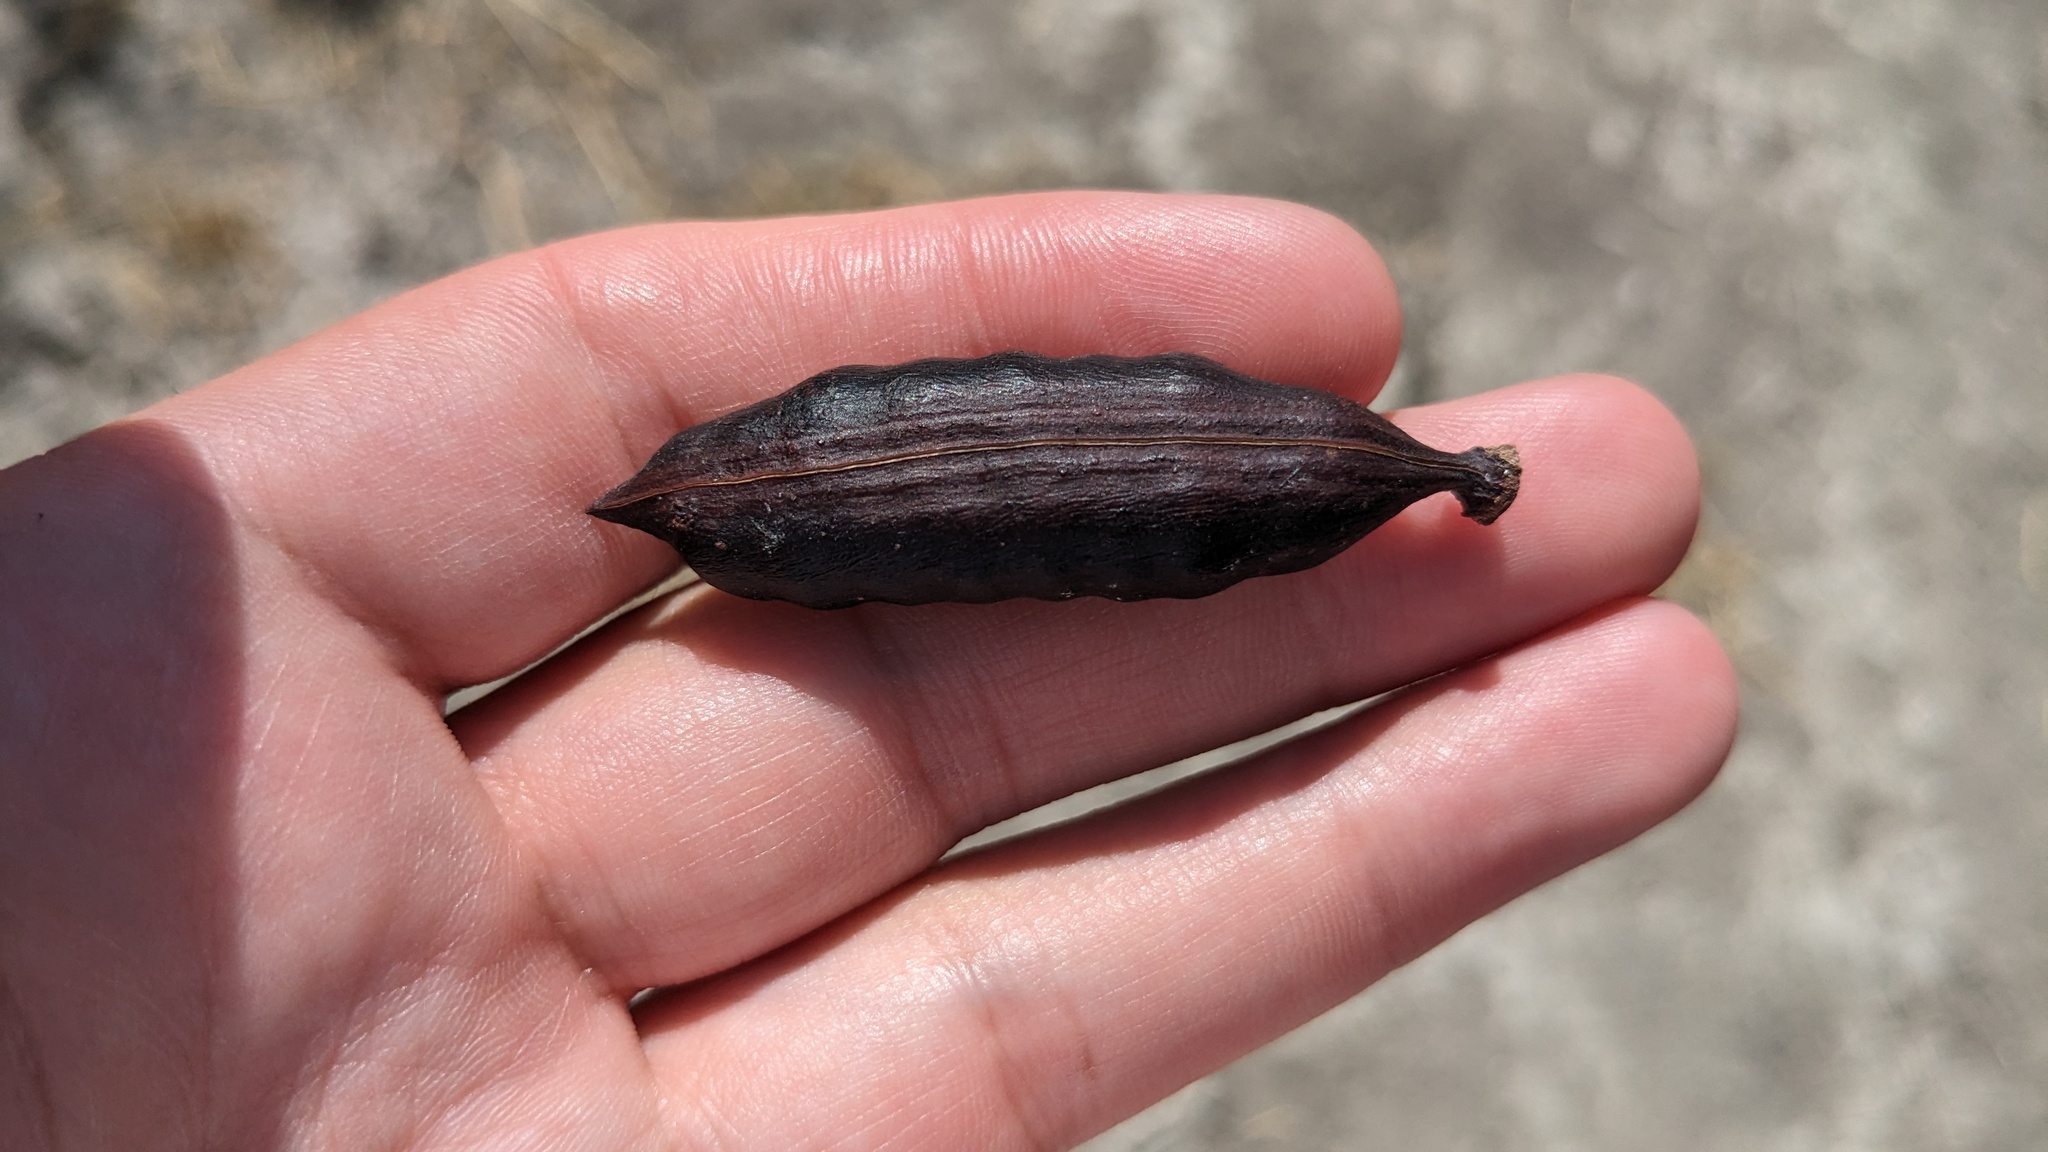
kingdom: Plantae
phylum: Tracheophyta
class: Magnoliopsida
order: Fabales
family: Fabaceae
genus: Vachellia
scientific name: Vachellia farnesiana
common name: Sweet acacia
